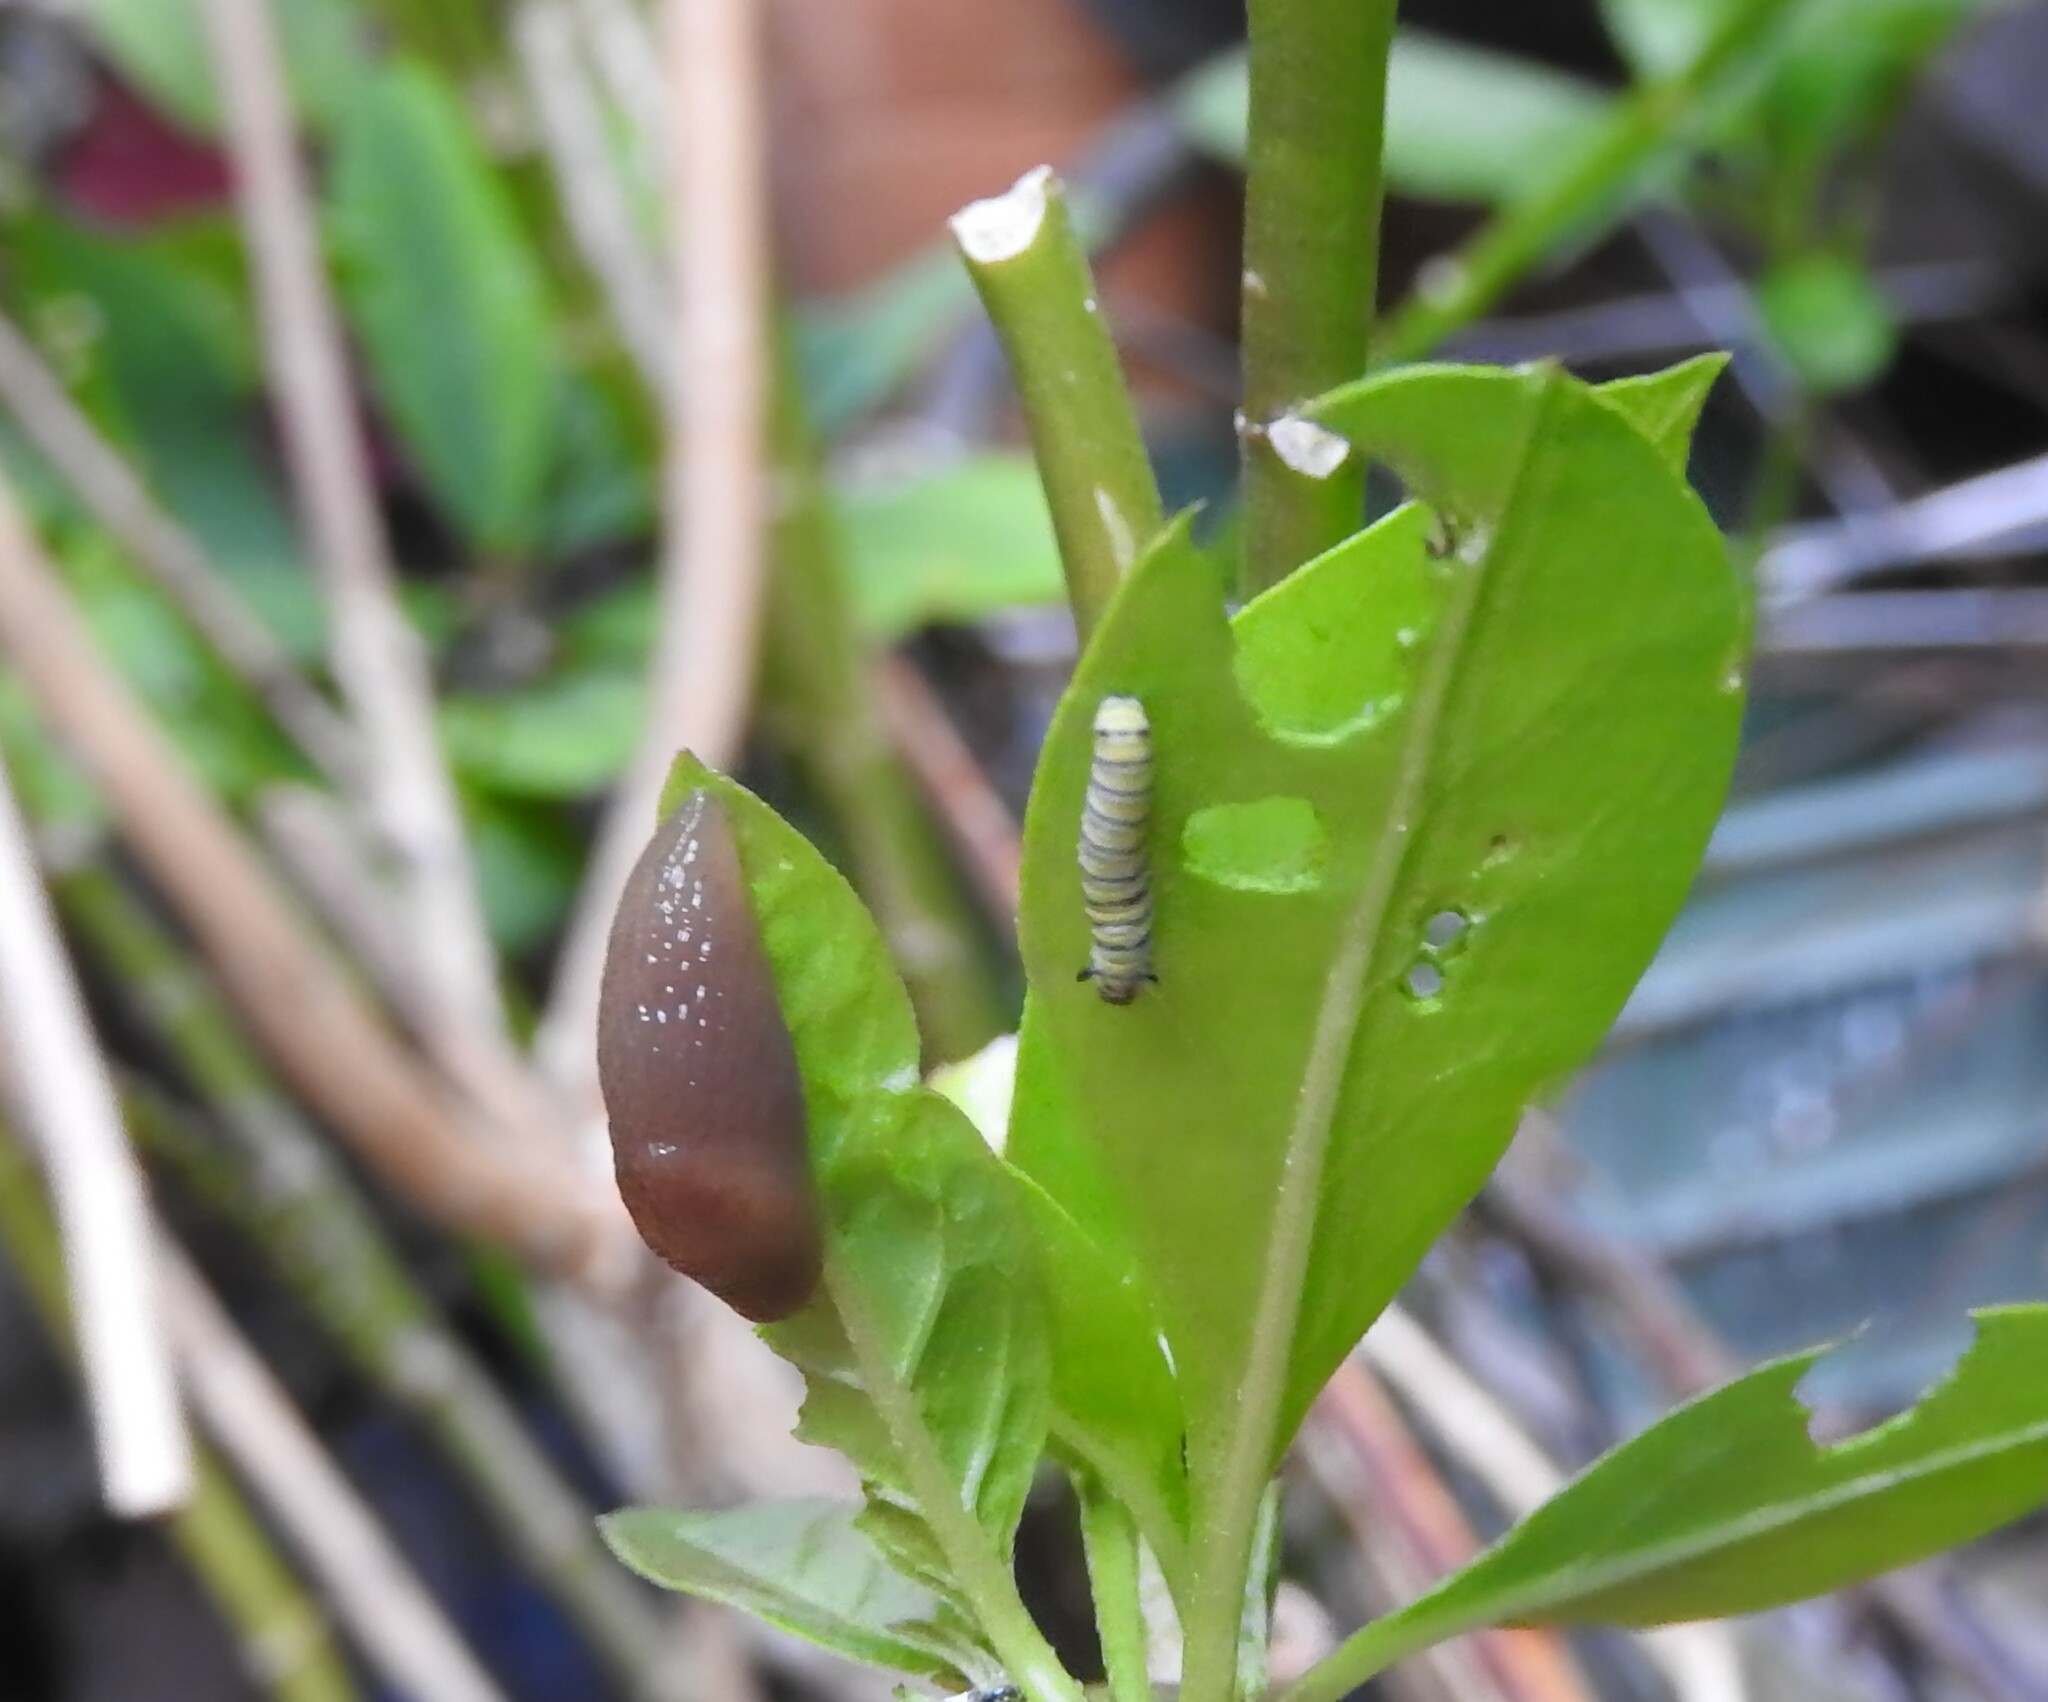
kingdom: Animalia
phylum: Arthropoda
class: Insecta
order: Lepidoptera
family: Nymphalidae
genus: Danaus
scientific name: Danaus plexippus
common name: Monarch
